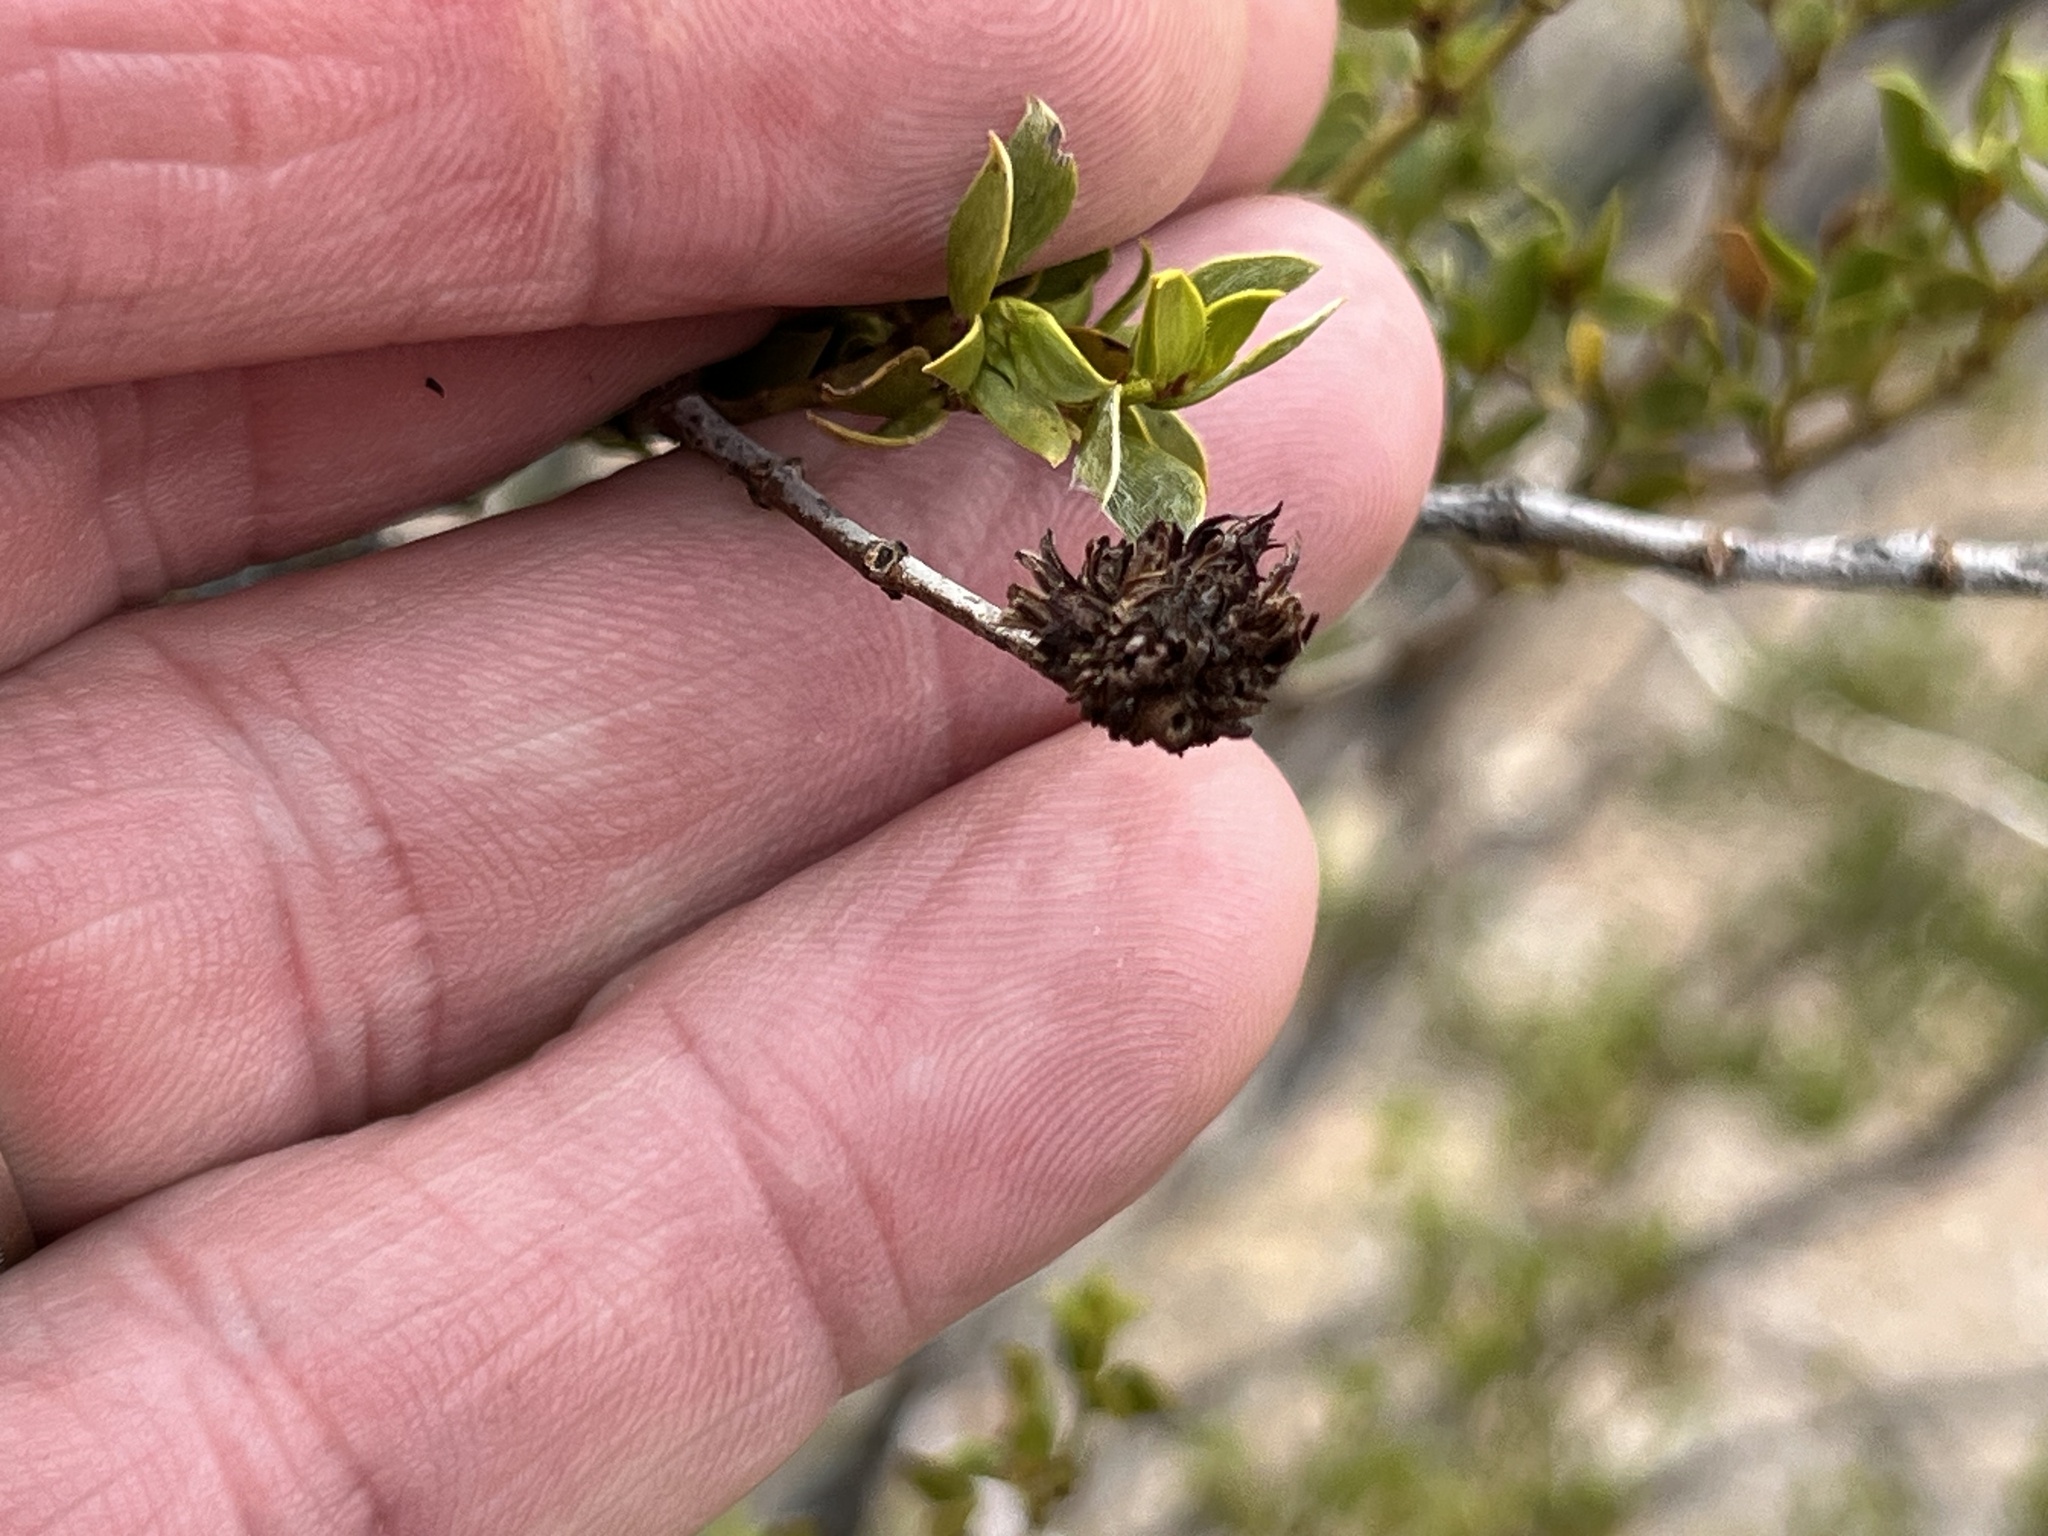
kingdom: Animalia
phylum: Arthropoda
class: Insecta
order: Diptera
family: Cecidomyiidae
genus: Asphondylia
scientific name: Asphondylia rosetta
